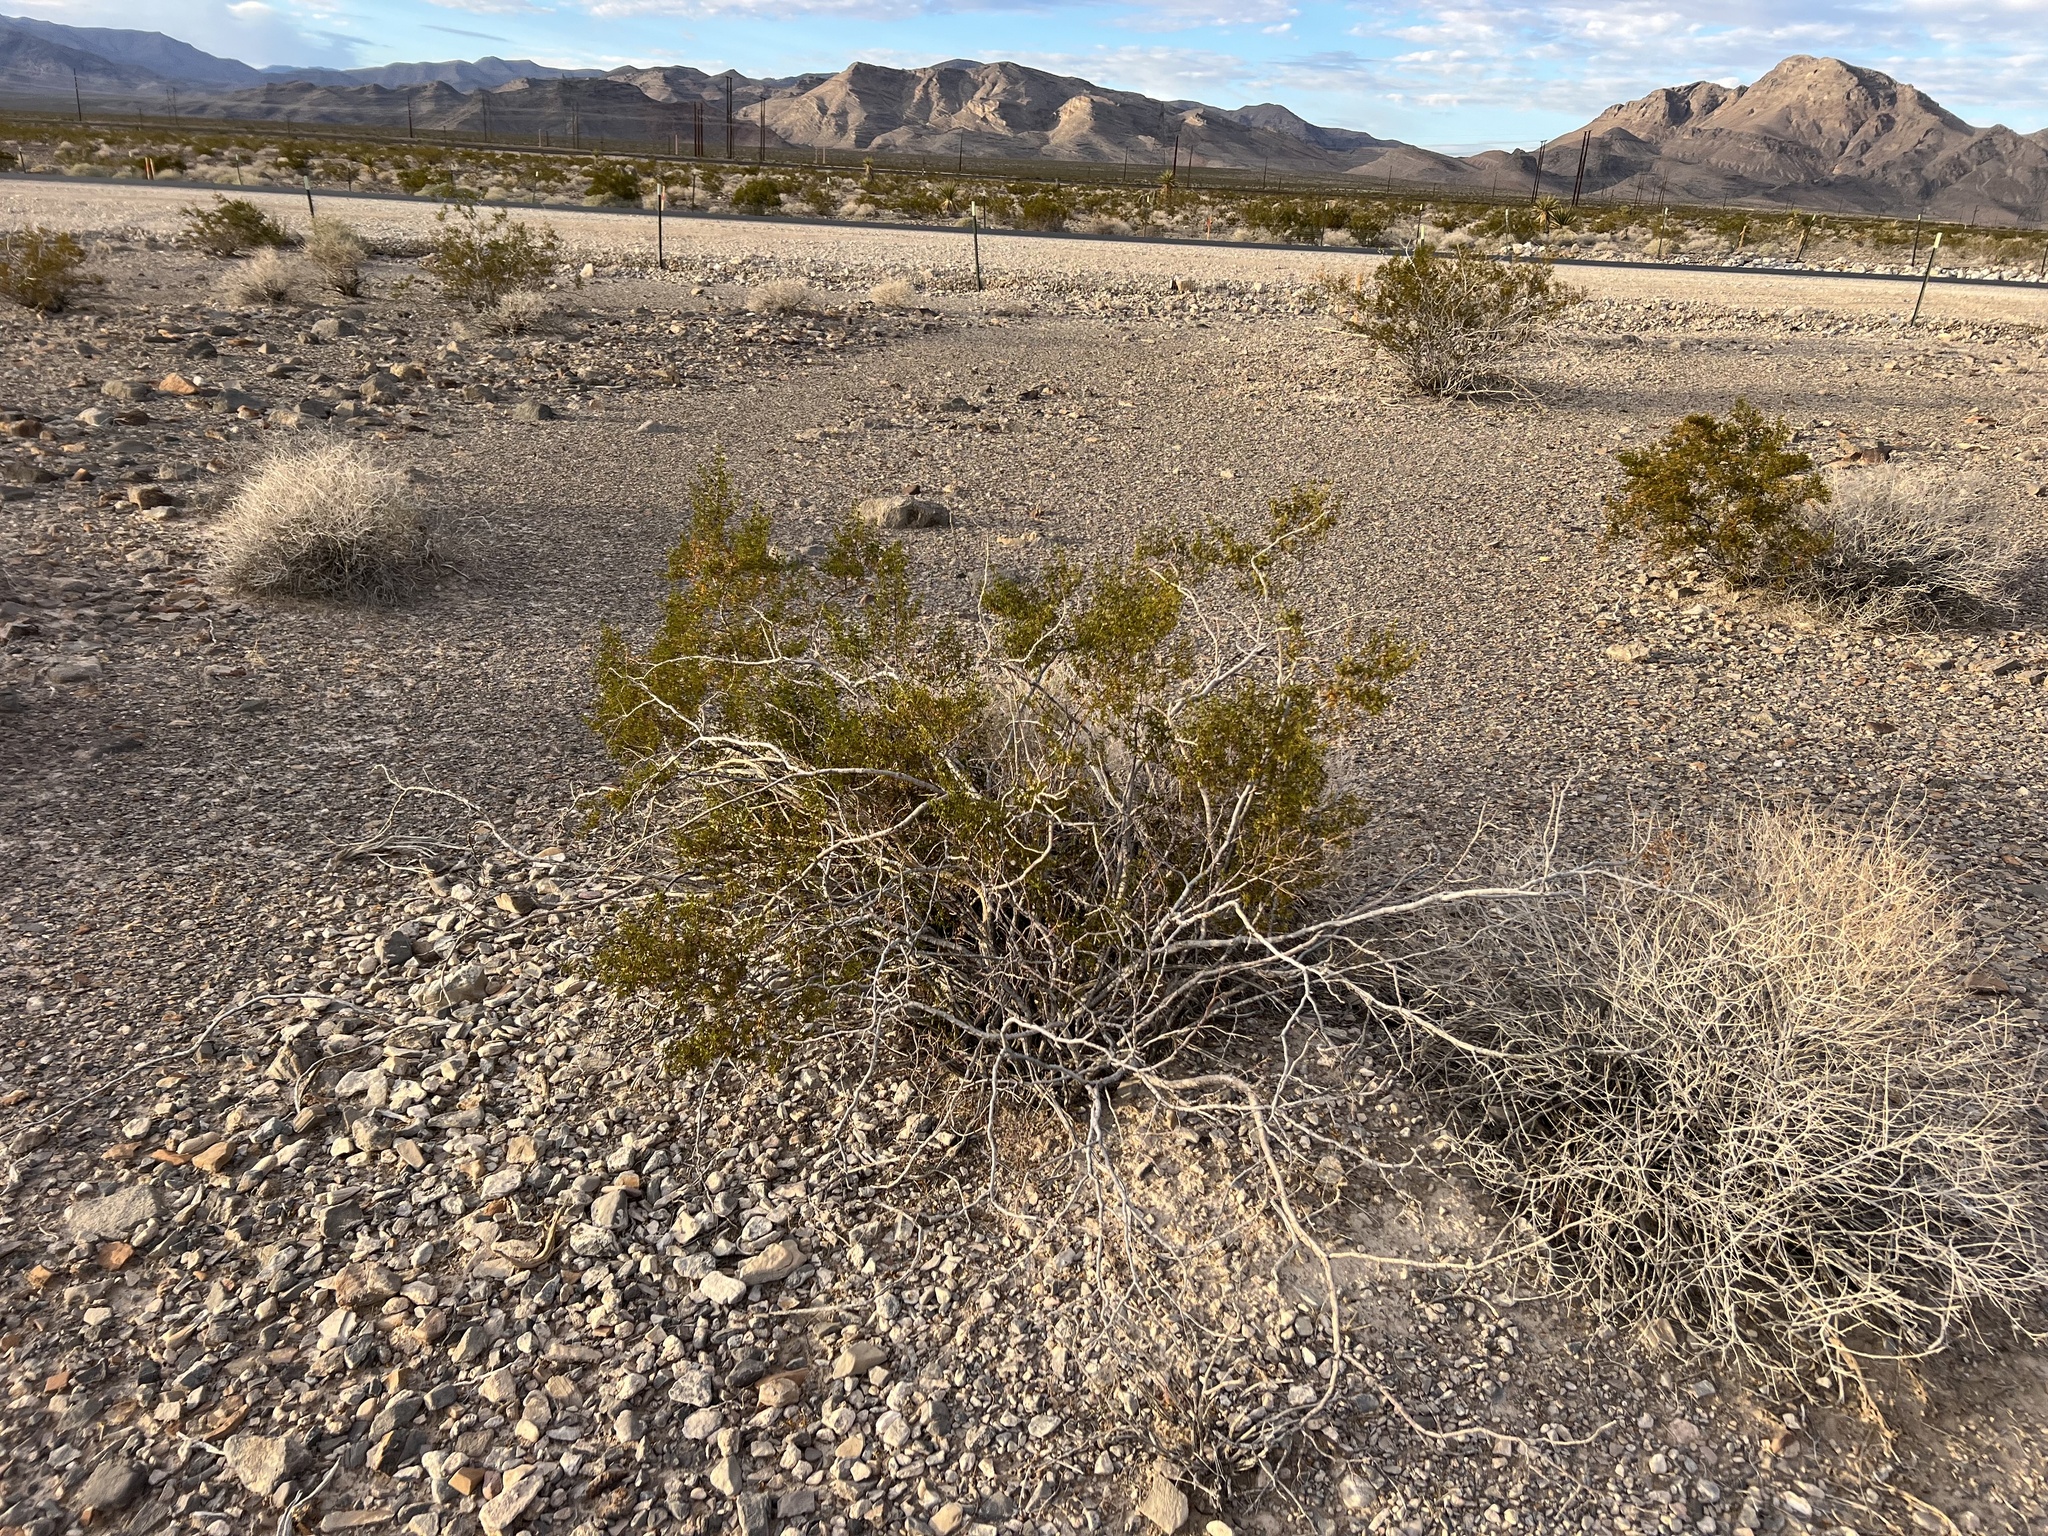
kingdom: Plantae
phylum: Tracheophyta
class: Magnoliopsida
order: Zygophyllales
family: Zygophyllaceae
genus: Larrea
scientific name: Larrea tridentata
